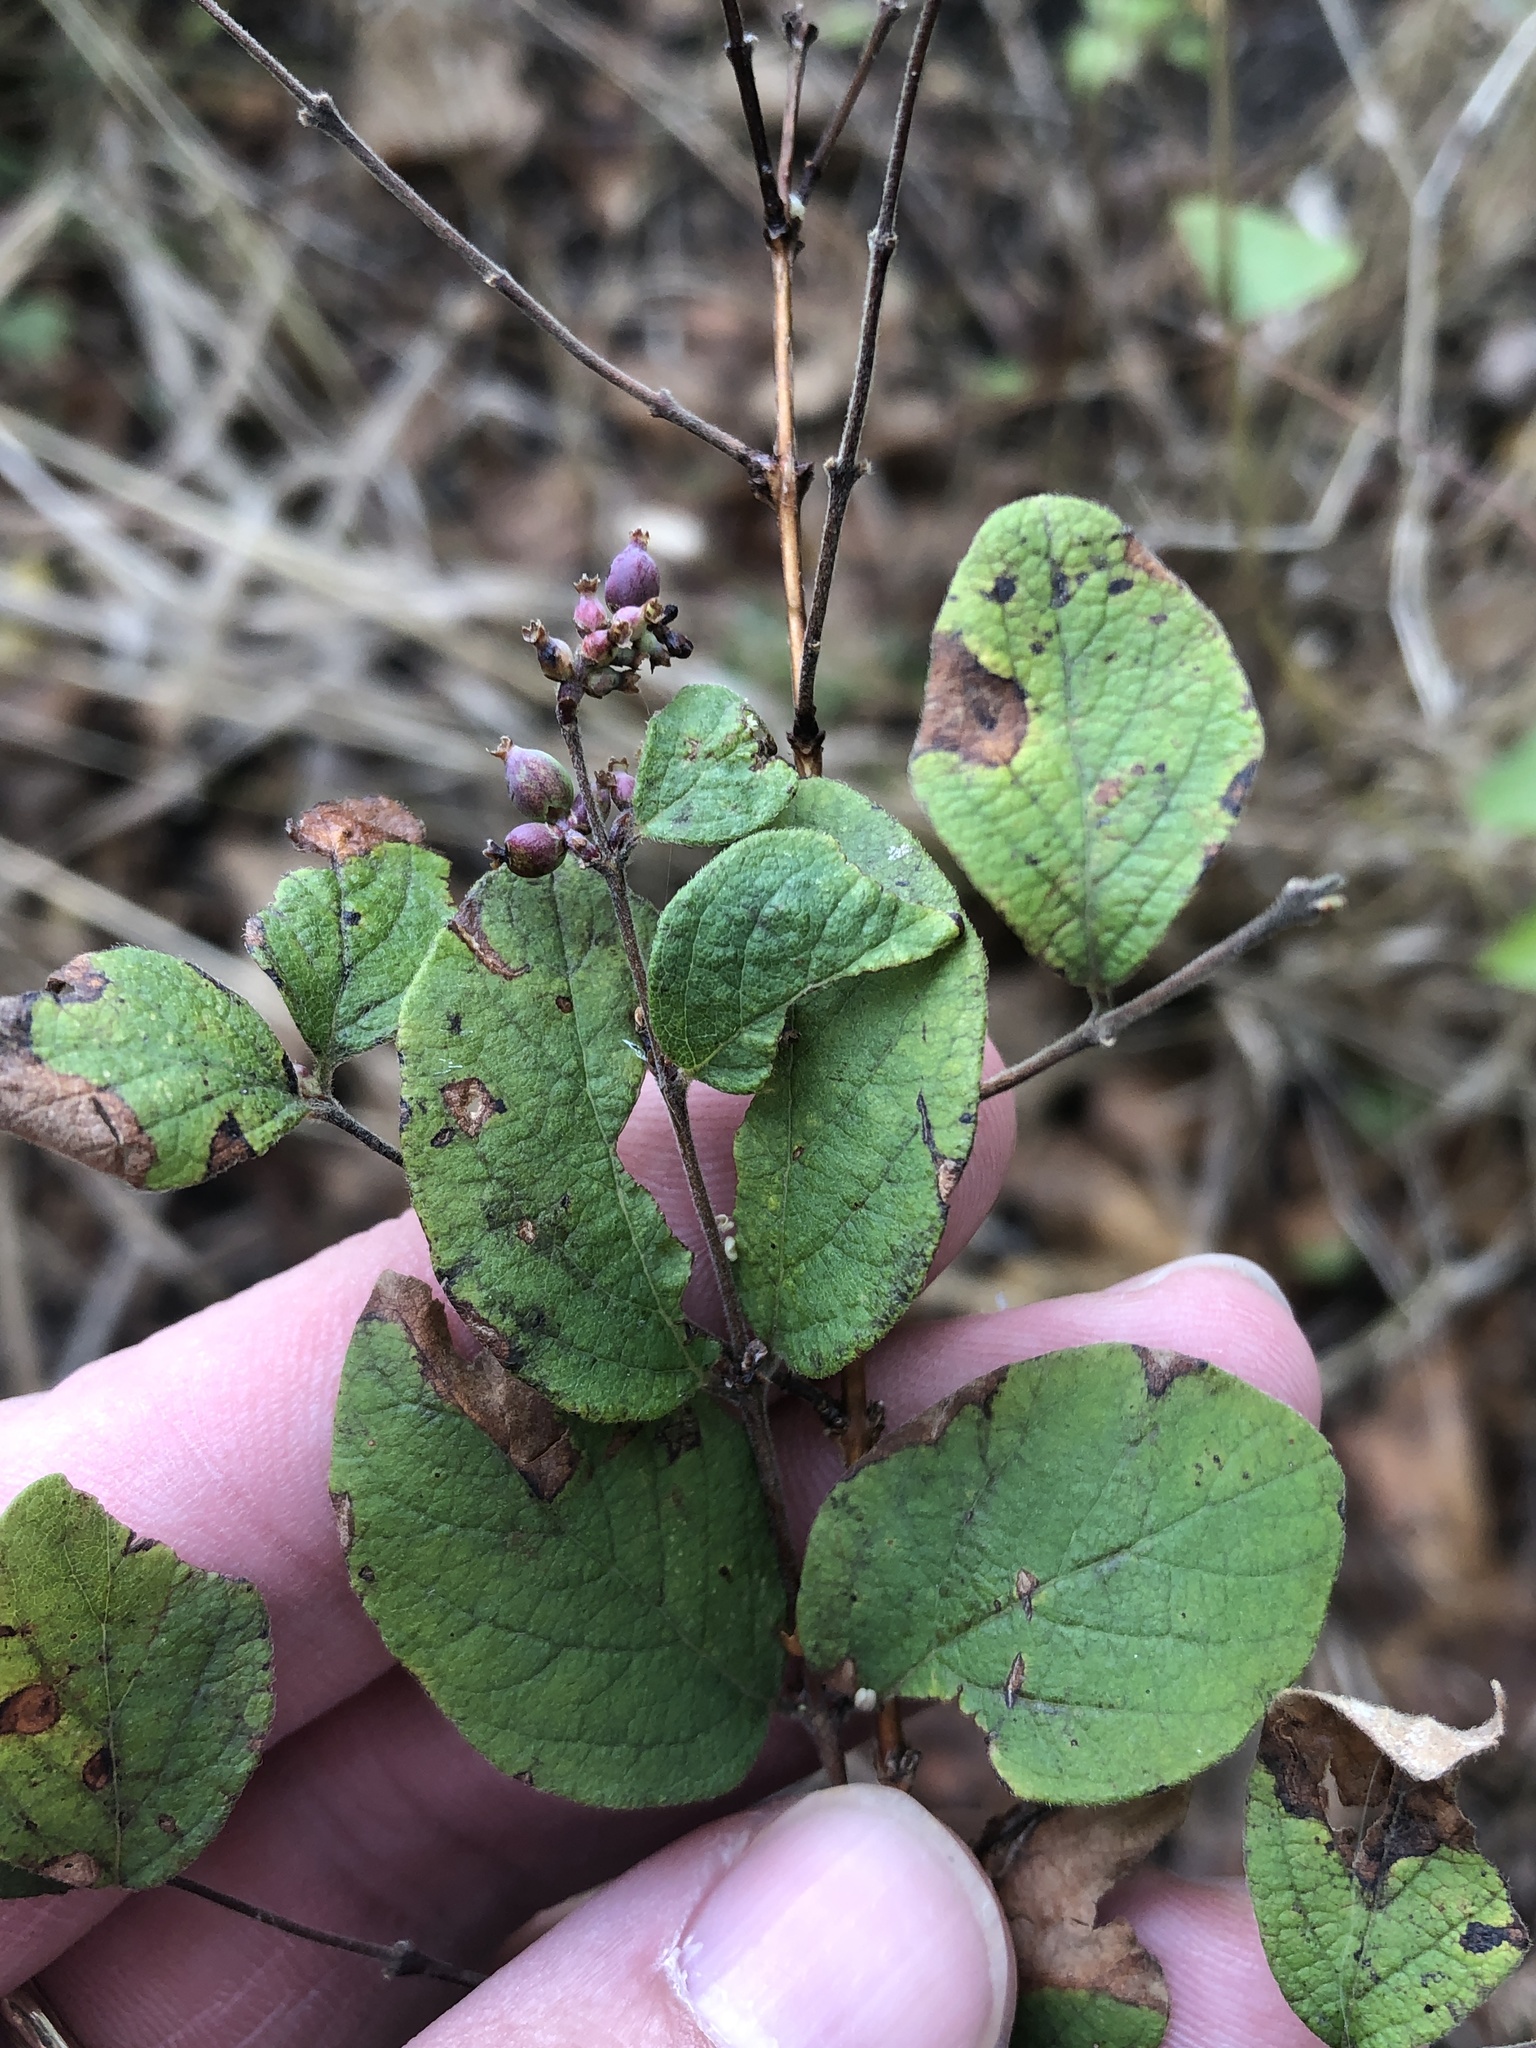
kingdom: Plantae
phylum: Tracheophyta
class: Magnoliopsida
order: Dipsacales
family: Caprifoliaceae
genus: Symphoricarpos
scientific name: Symphoricarpos orbiculatus
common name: Coralberry
